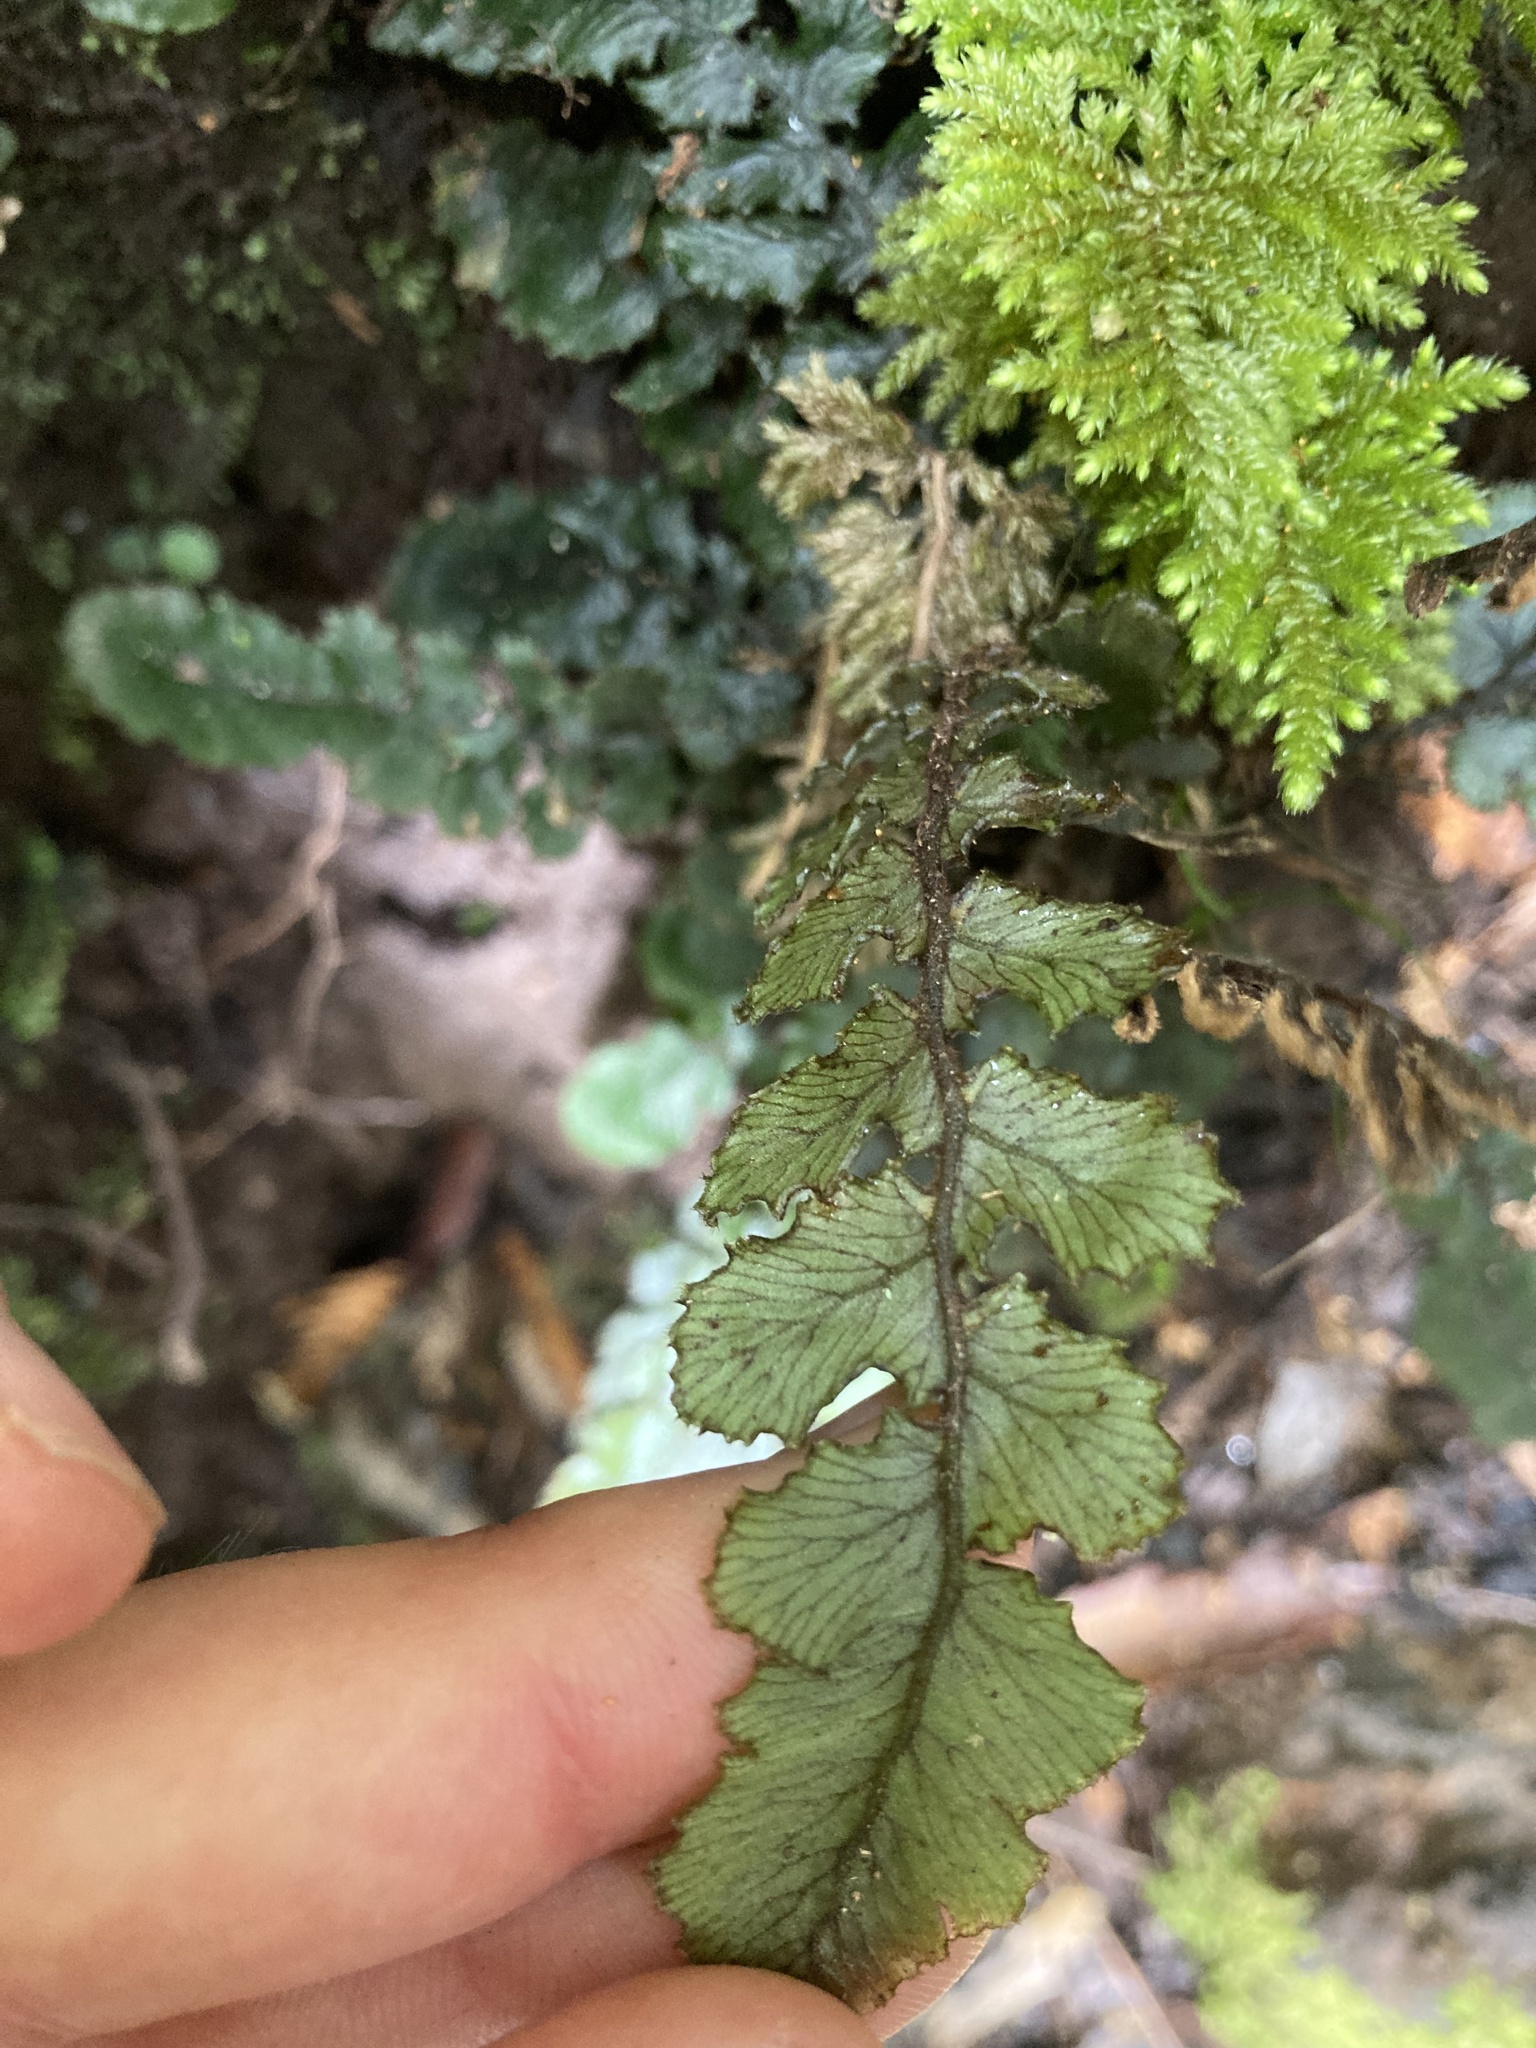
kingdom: Plantae
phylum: Tracheophyta
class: Polypodiopsida
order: Polypodiales
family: Blechnaceae
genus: Cranfillia
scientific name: Cranfillia nigra
